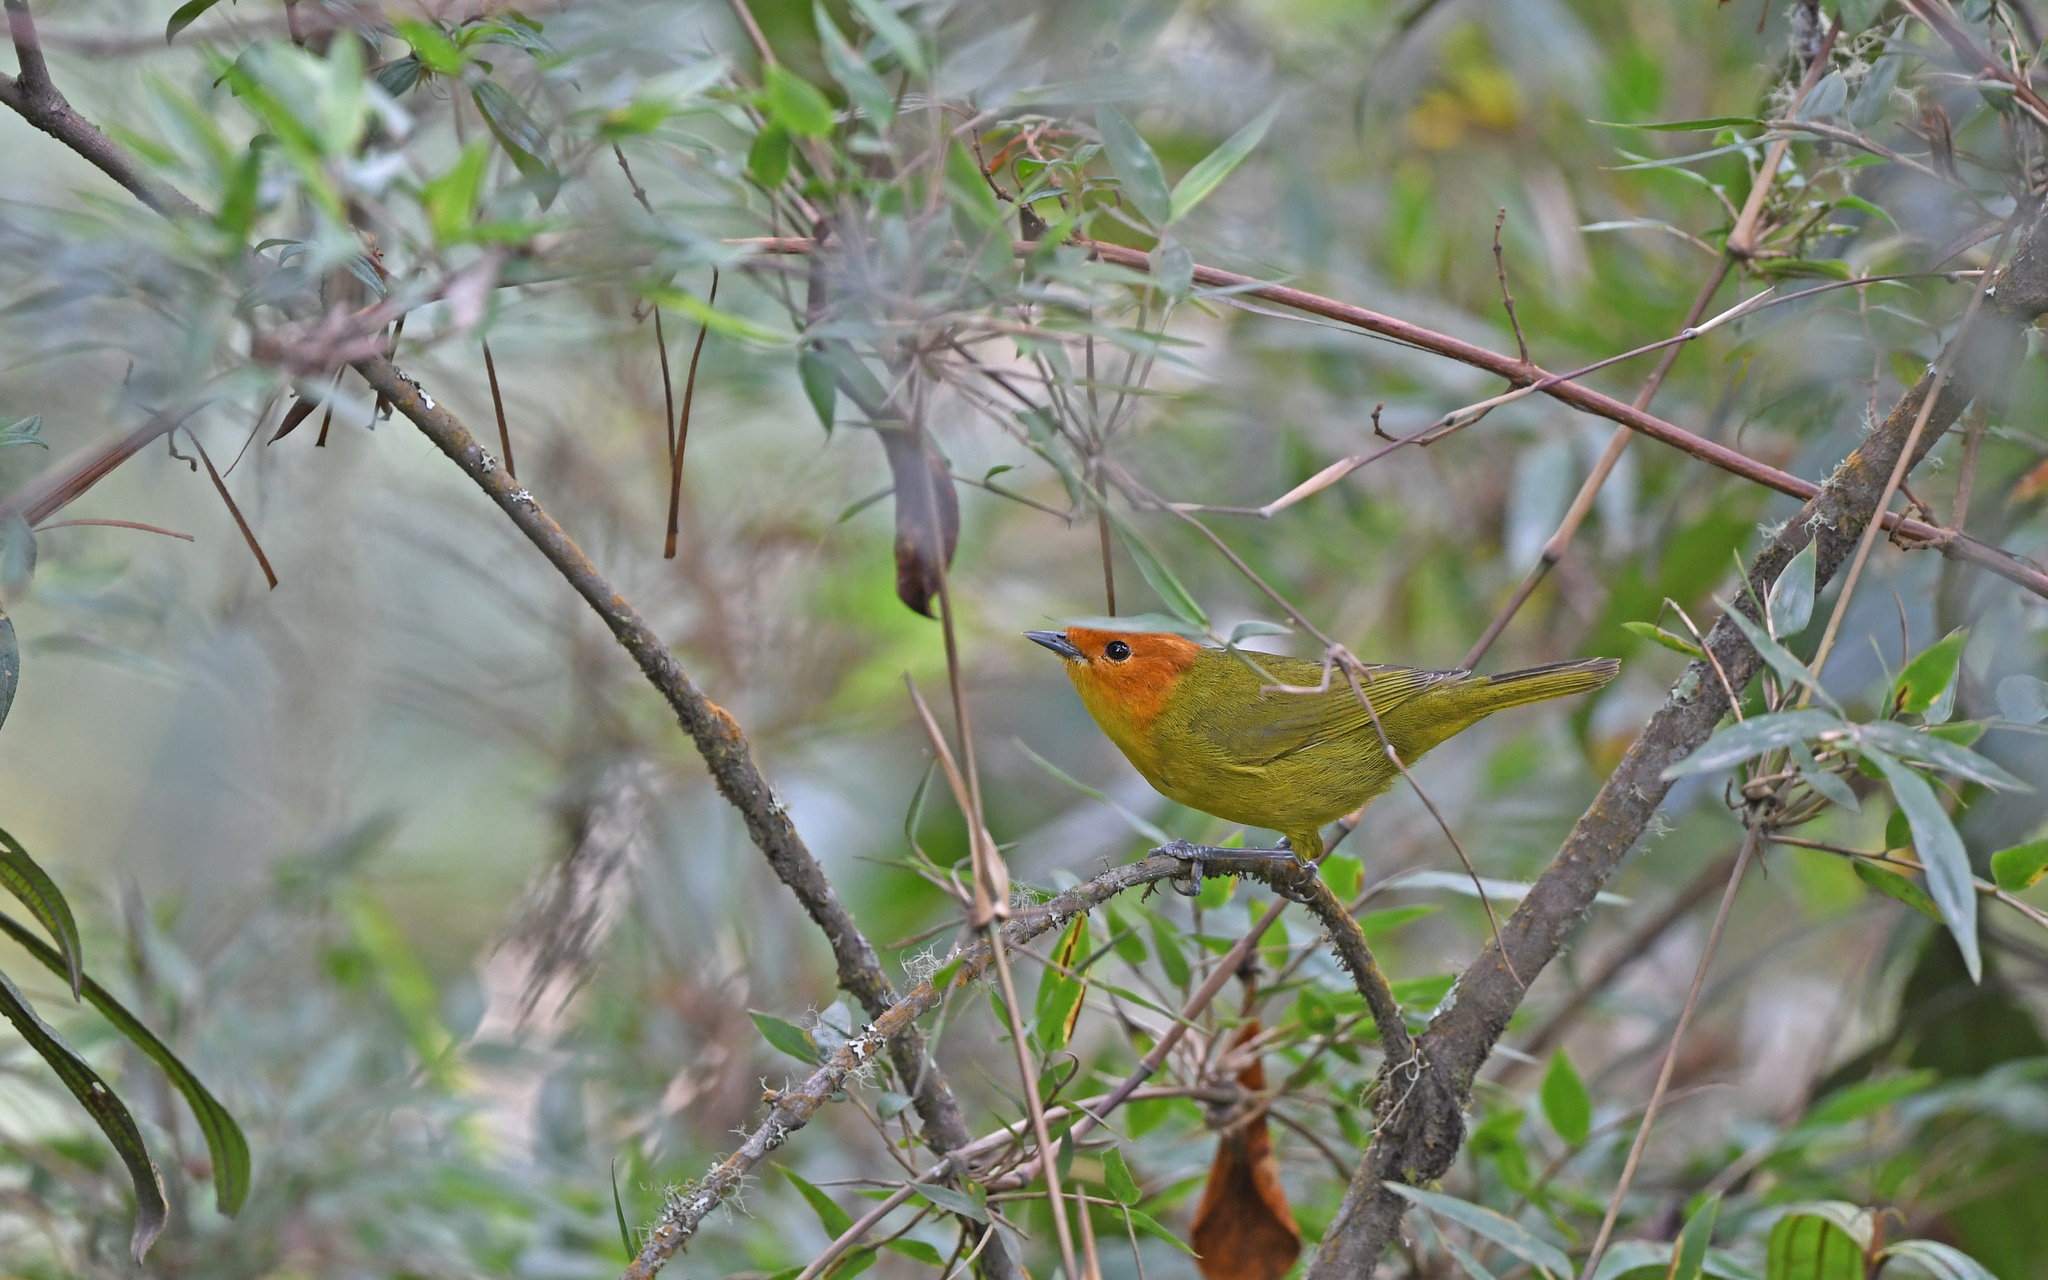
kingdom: Animalia
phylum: Chordata
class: Aves
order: Passeriformes
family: Thraupidae
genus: Thlypopsis
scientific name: Thlypopsis ruficeps
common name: Rust-and-yellow tanager
